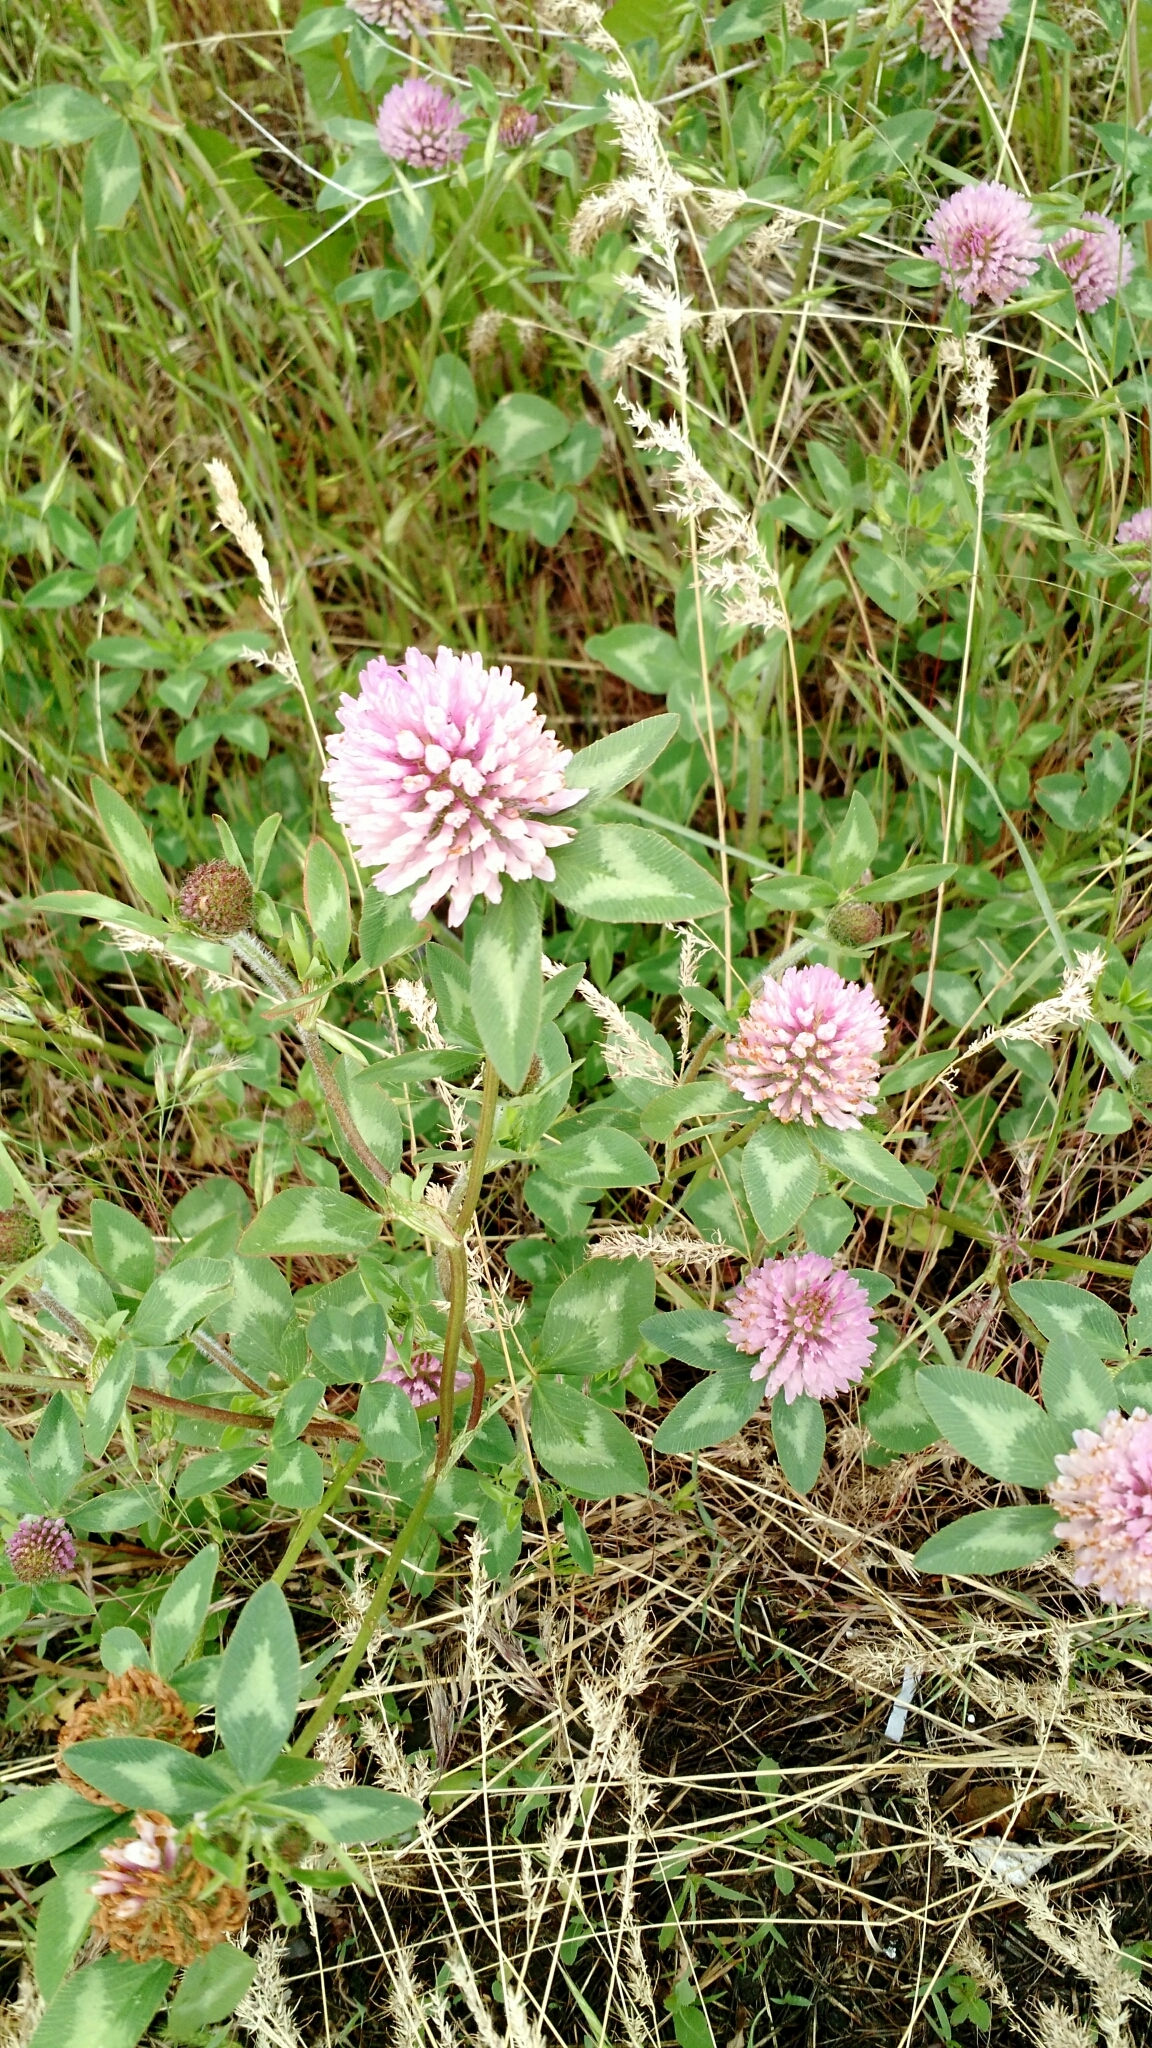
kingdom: Plantae
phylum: Tracheophyta
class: Magnoliopsida
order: Fabales
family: Fabaceae
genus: Trifolium
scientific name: Trifolium pratense
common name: Red clover
